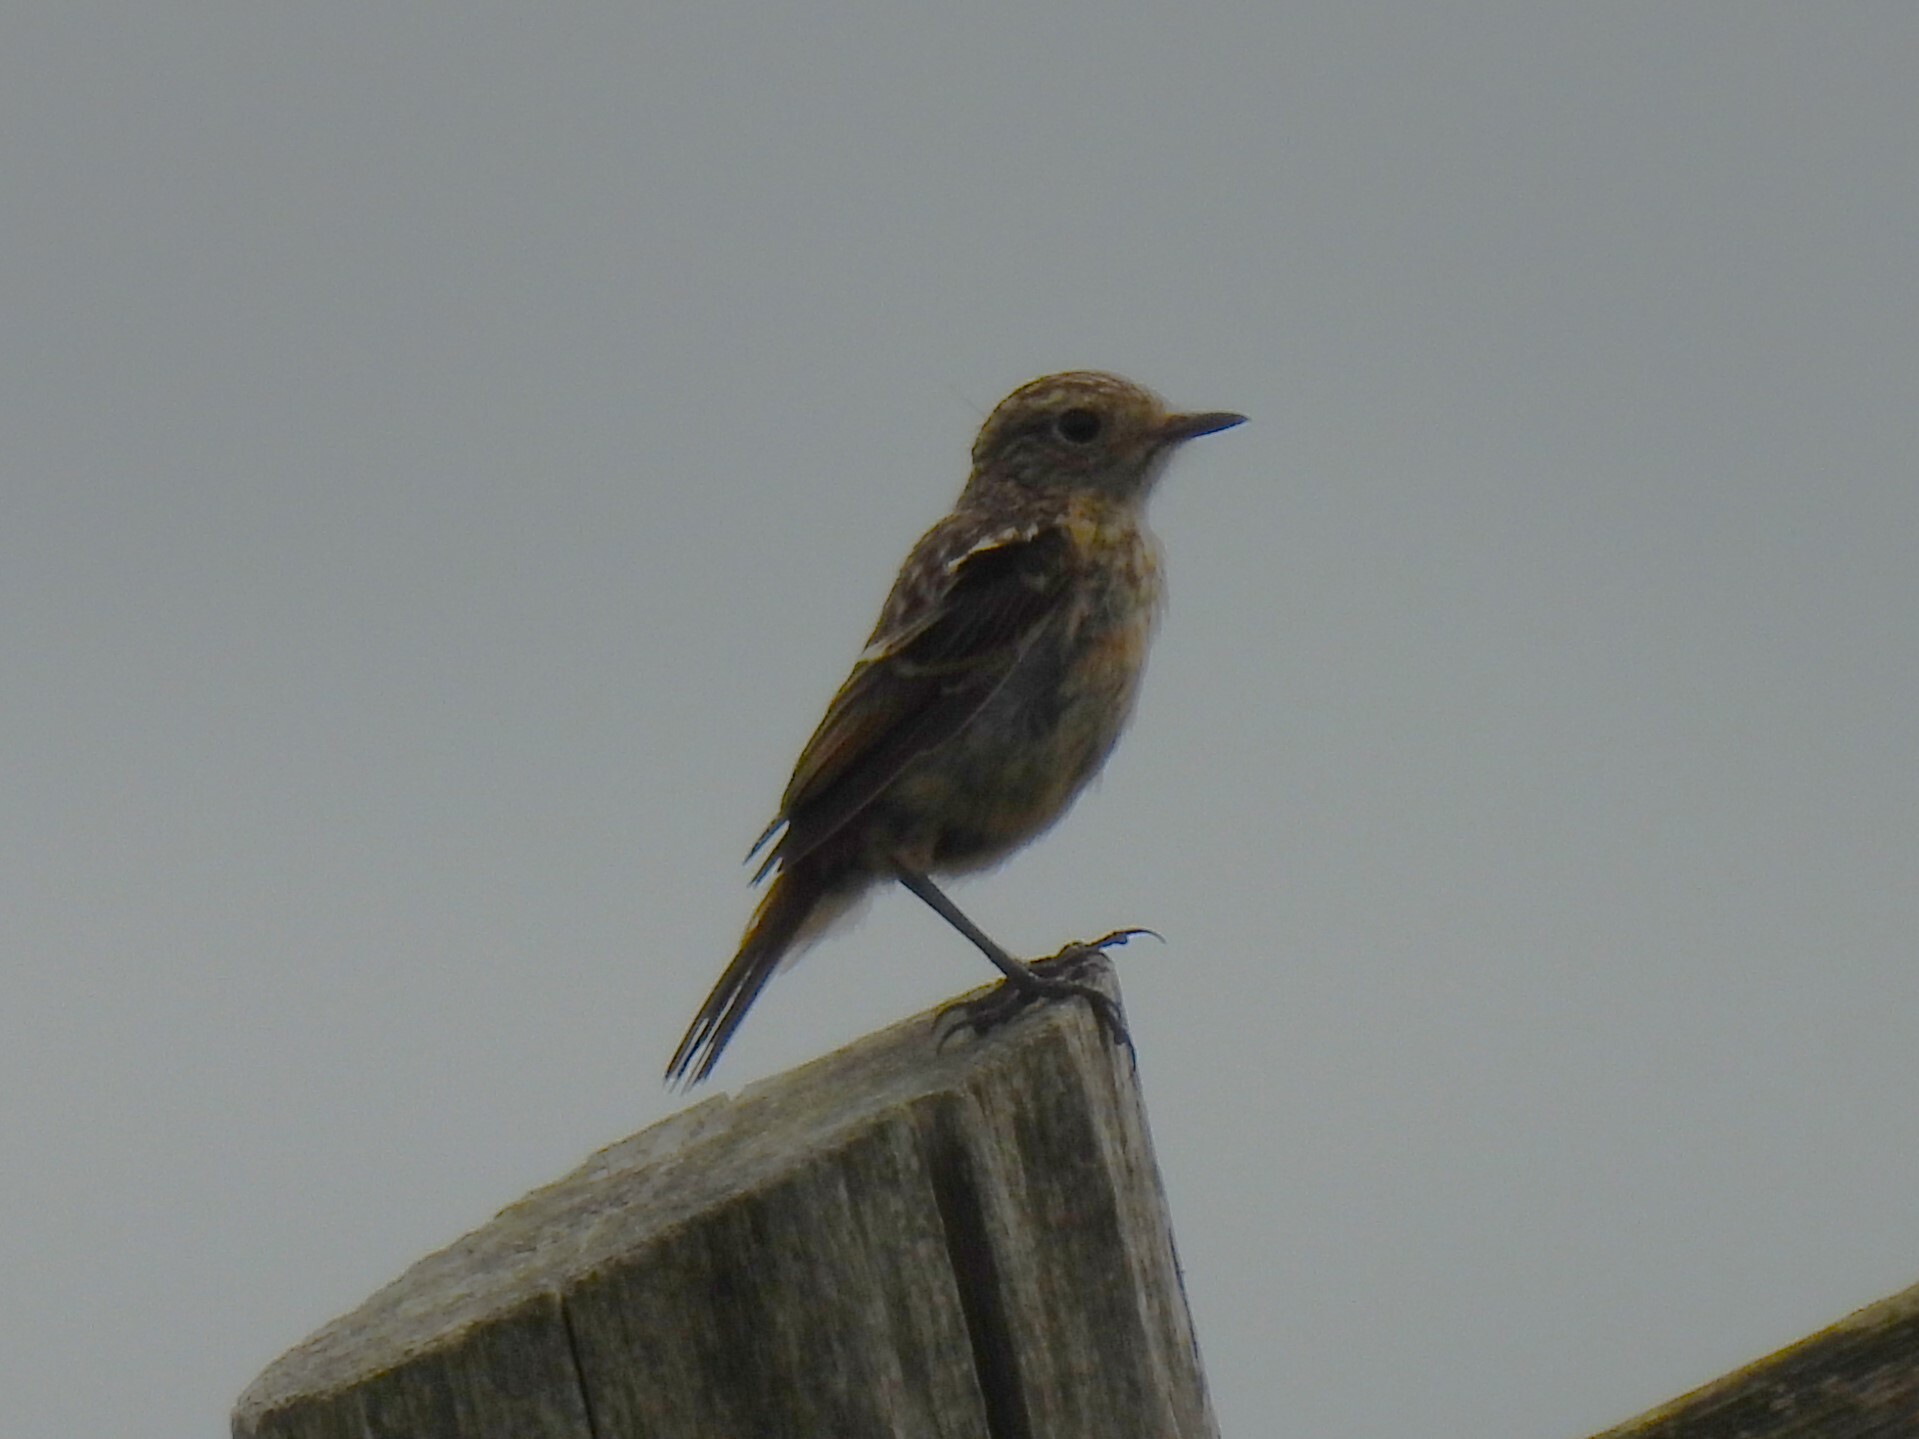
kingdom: Animalia
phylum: Chordata
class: Aves
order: Passeriformes
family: Muscicapidae
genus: Saxicola
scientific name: Saxicola rubicola
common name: European stonechat
